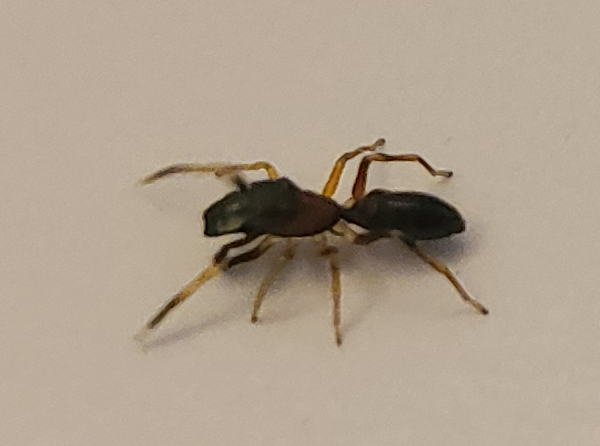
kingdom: Animalia
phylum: Arthropoda
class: Arachnida
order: Araneae
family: Salticidae
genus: Myrmarachne
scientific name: Myrmarachne formicaria
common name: Ant mimic jumping spider
